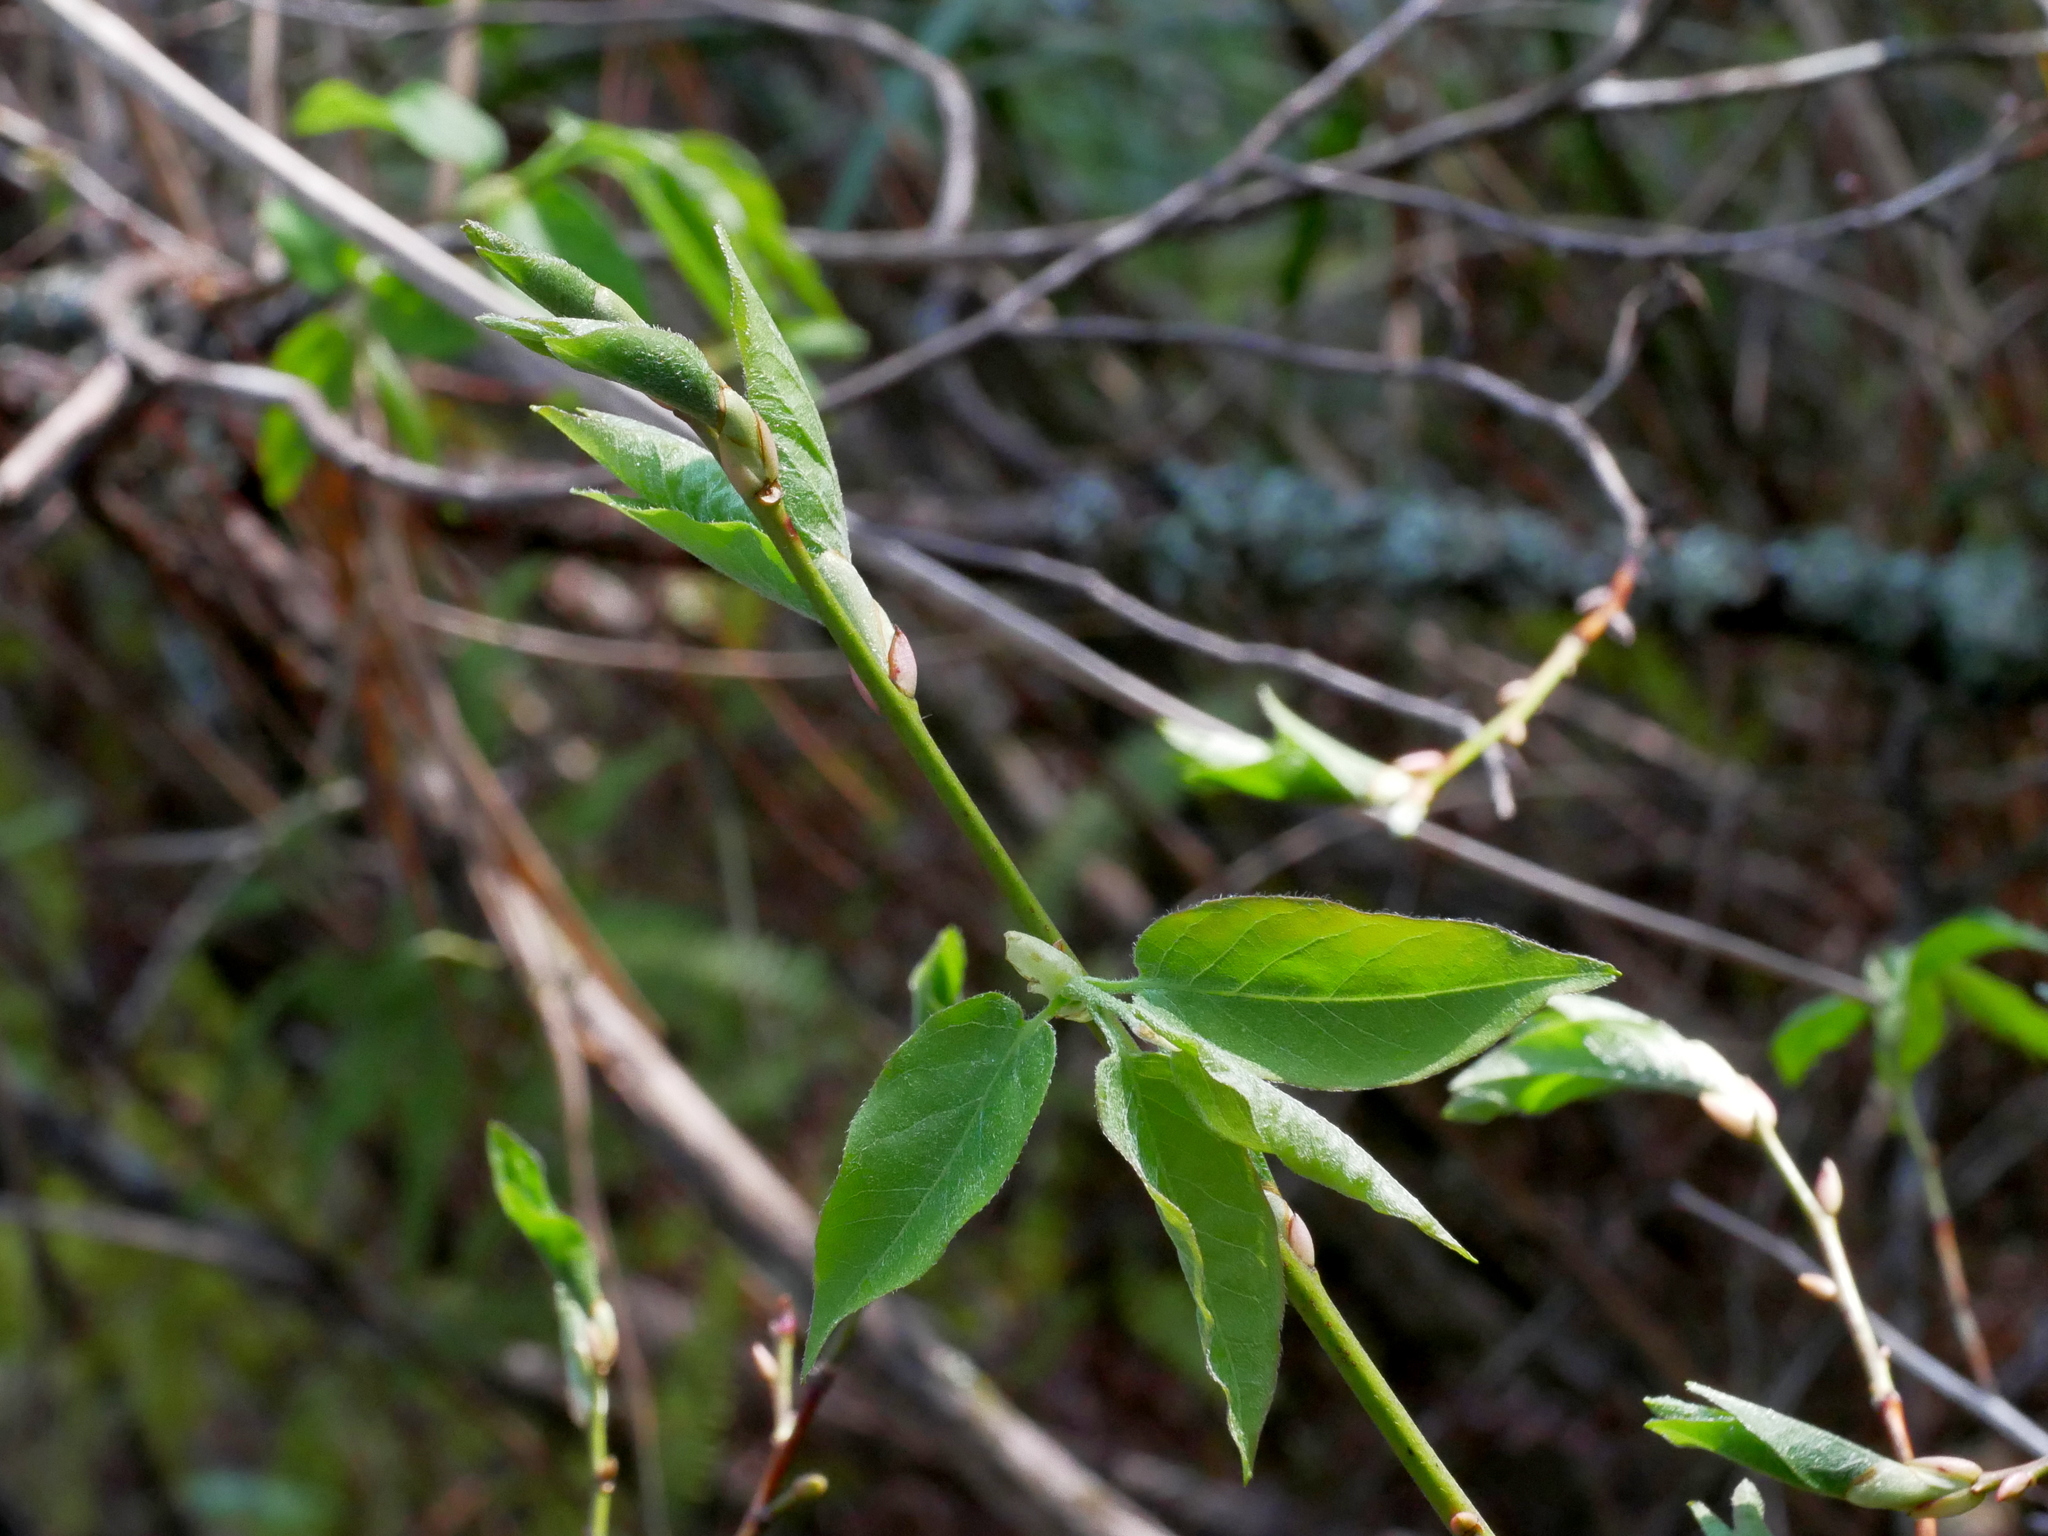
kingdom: Plantae
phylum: Tracheophyta
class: Magnoliopsida
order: Ericales
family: Ericaceae
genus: Lyonia
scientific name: Lyonia ovalifolia
